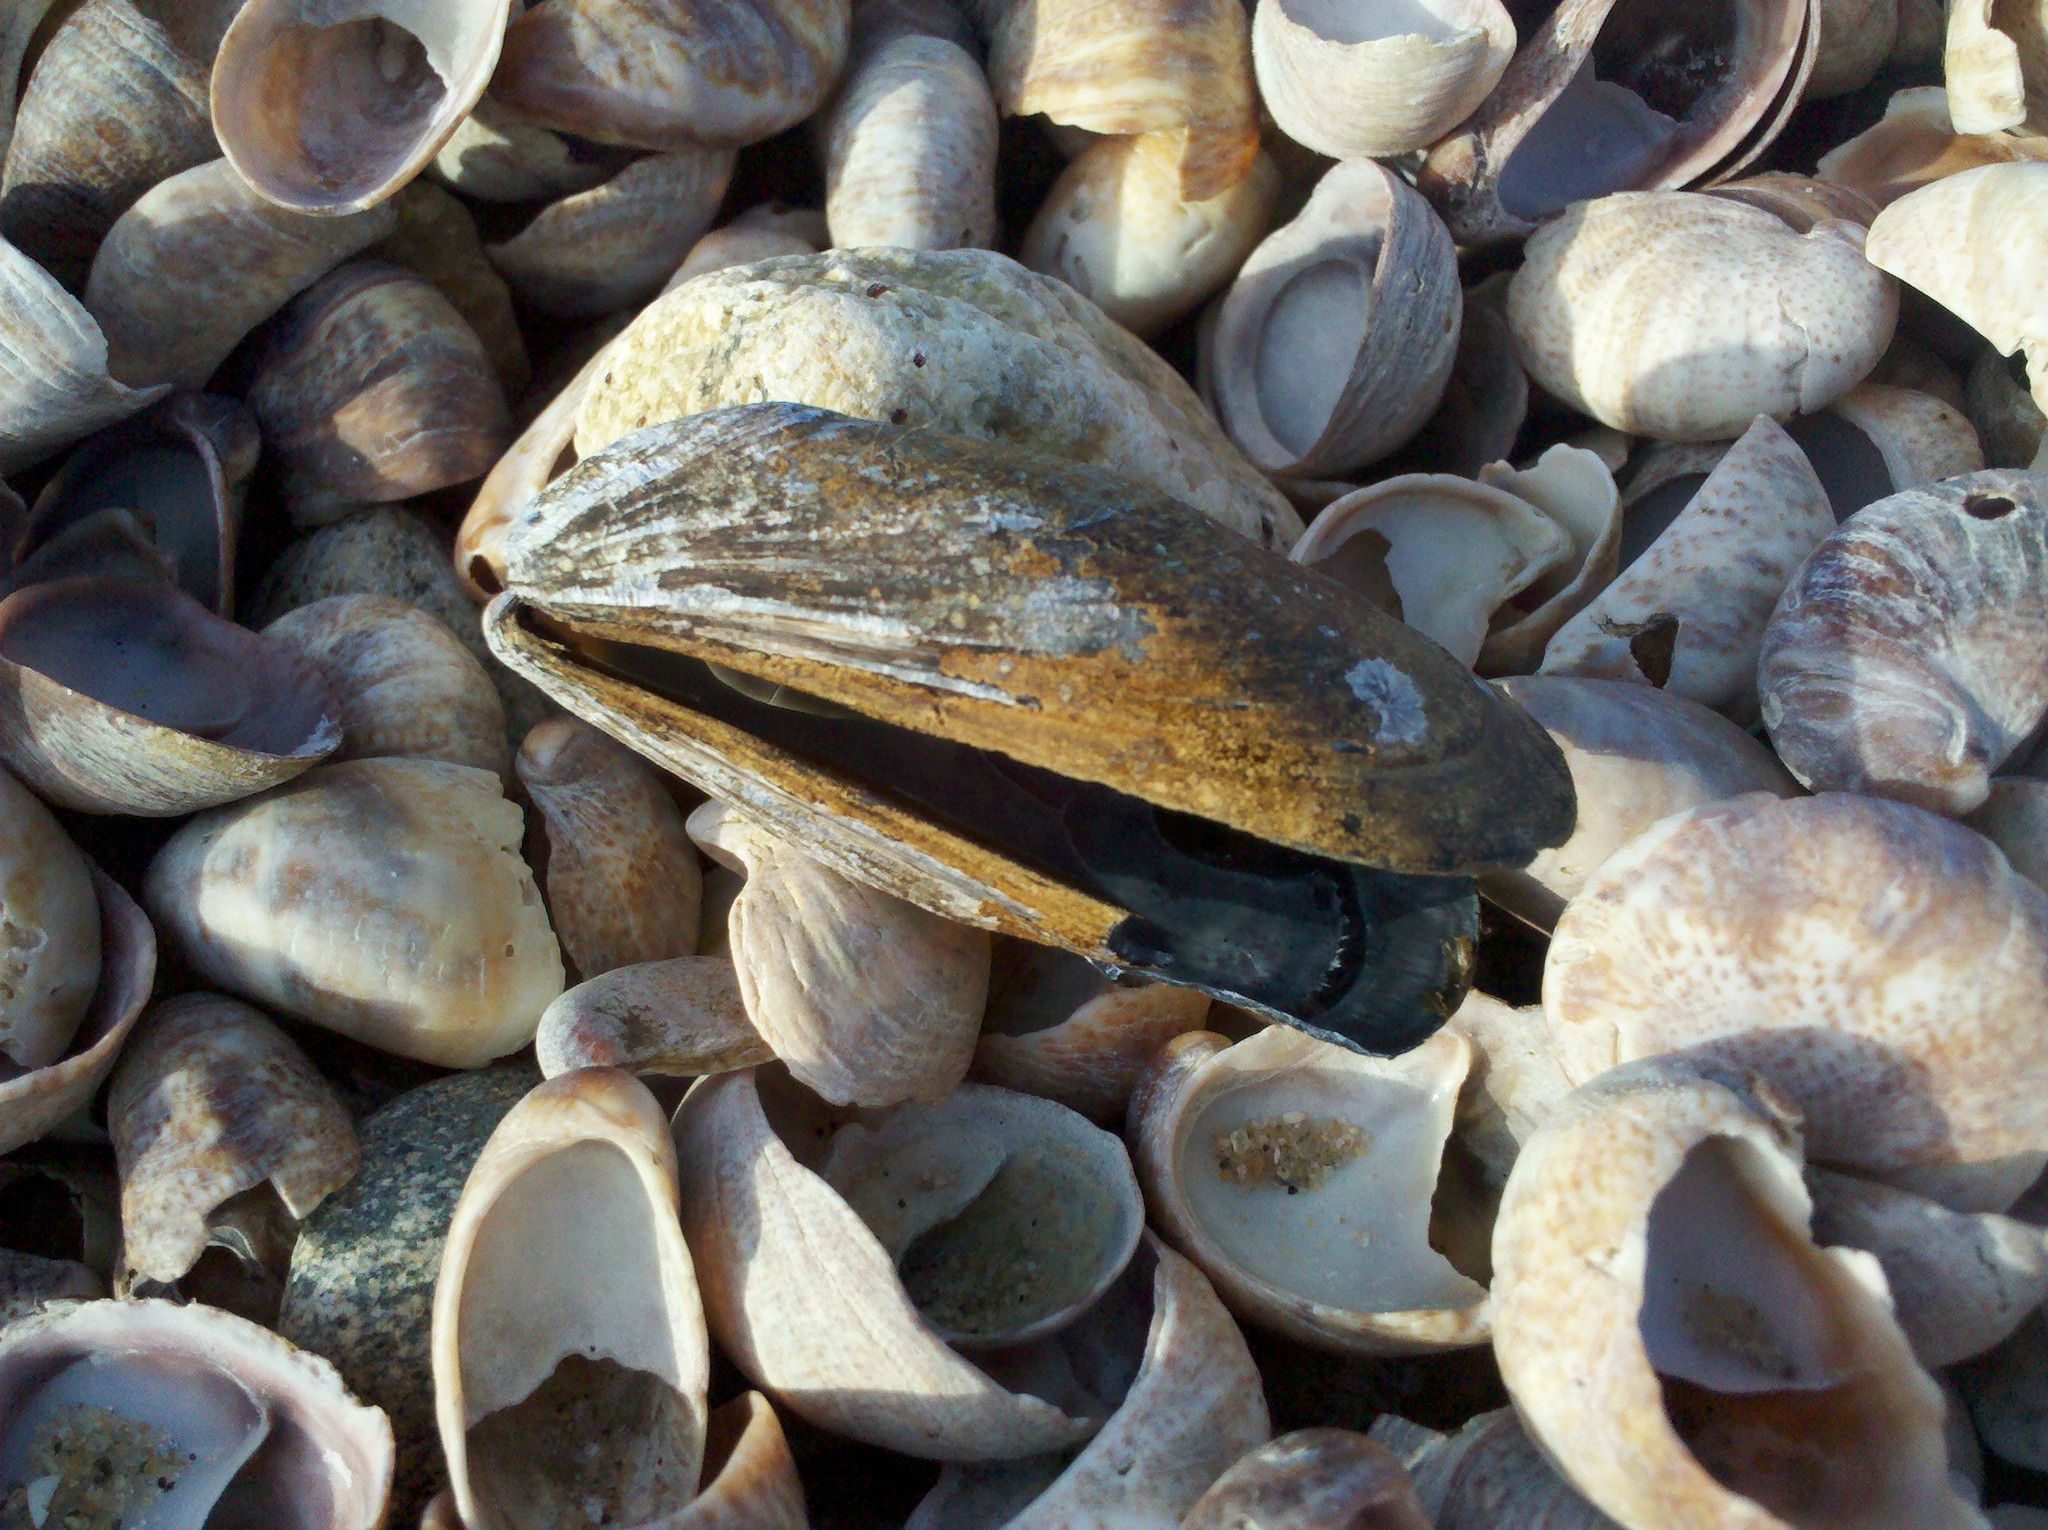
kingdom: Animalia
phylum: Mollusca
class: Bivalvia
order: Mytilida
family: Mytilidae
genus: Mytilus
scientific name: Mytilus edulis
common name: Blue mussel
